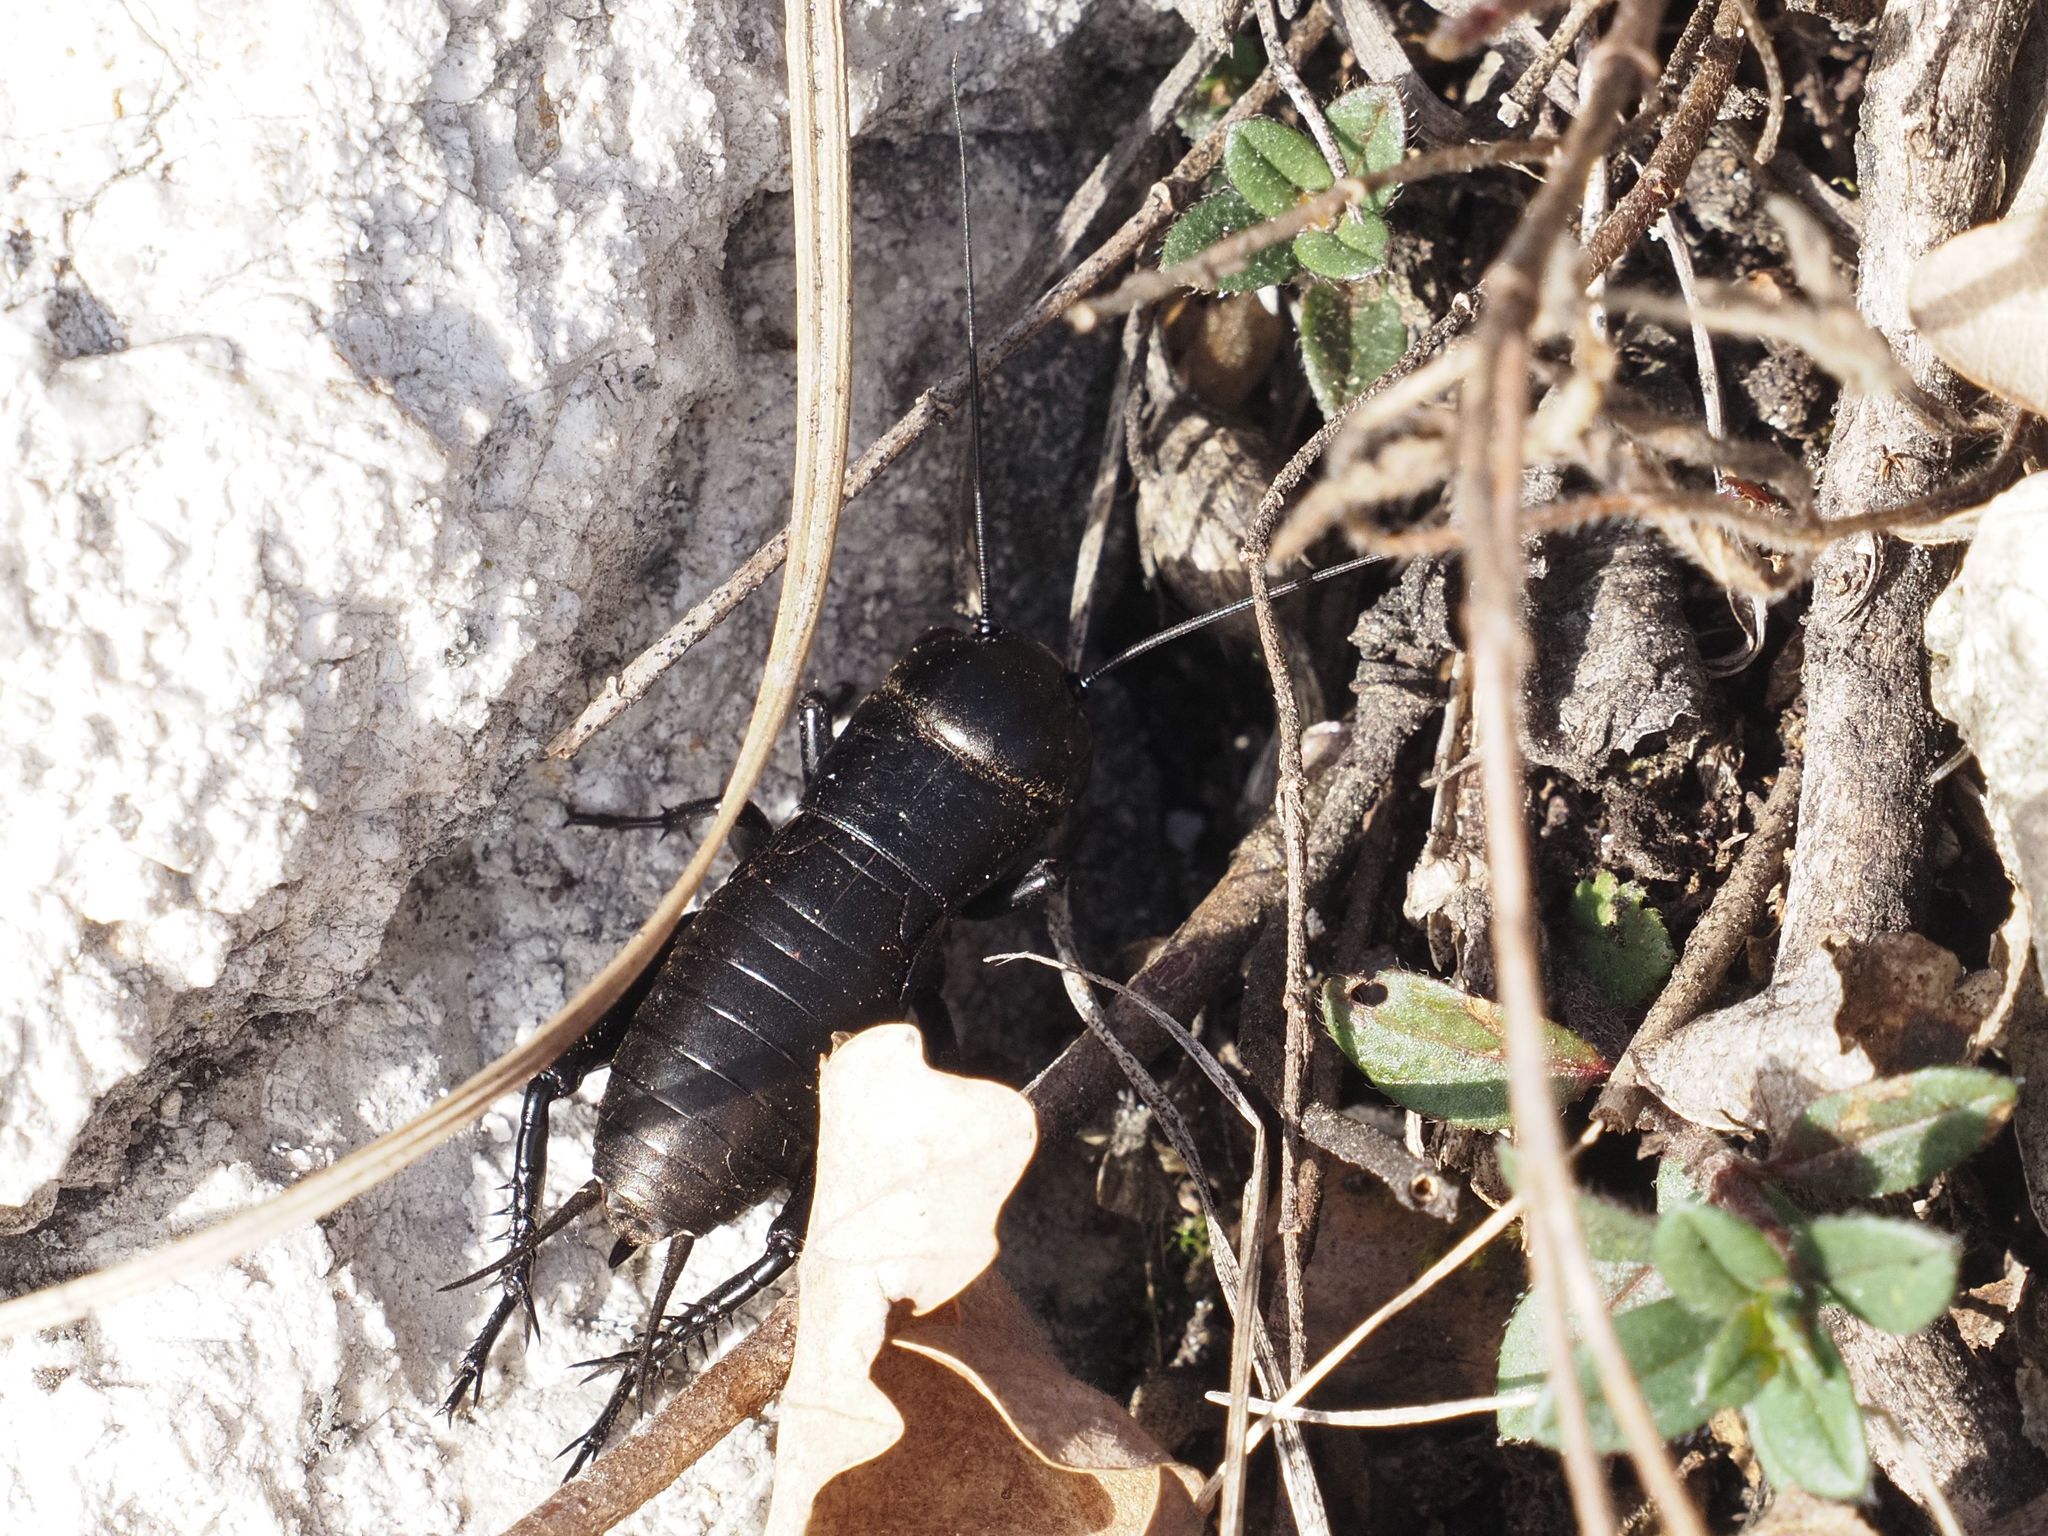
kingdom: Animalia
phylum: Arthropoda
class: Insecta
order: Orthoptera
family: Gryllidae
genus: Gryllus
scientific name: Gryllus campestris
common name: Field cricket
